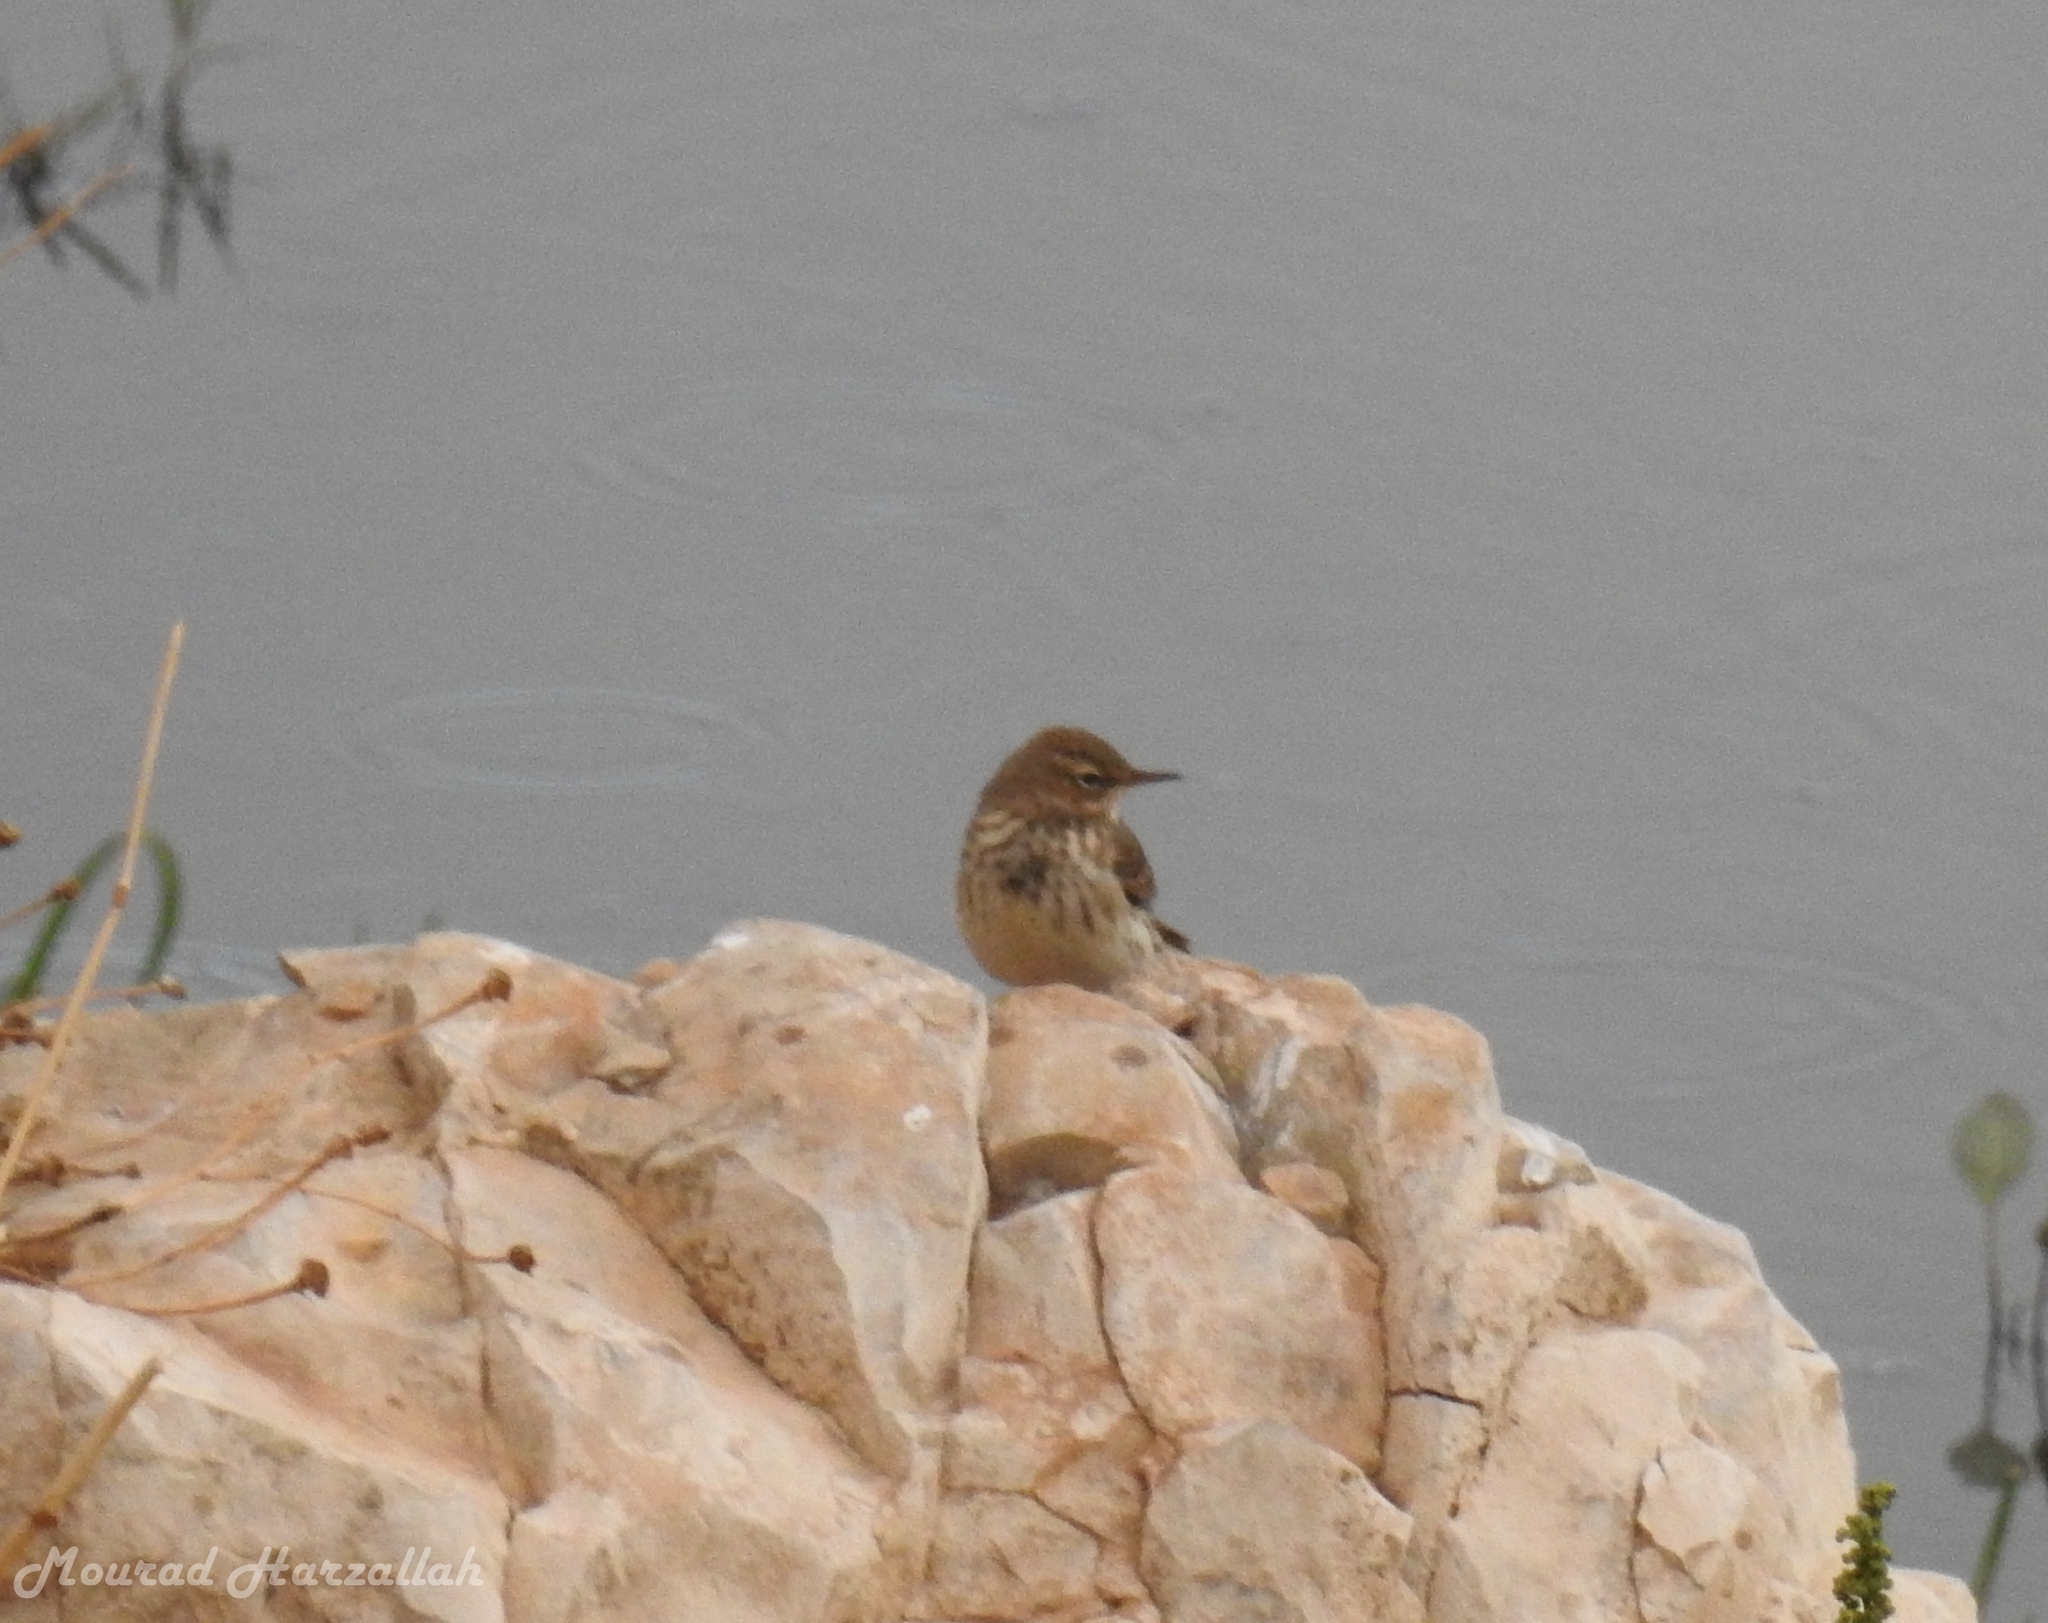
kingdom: Animalia
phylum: Chordata
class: Aves
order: Passeriformes
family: Motacillidae
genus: Anthus
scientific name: Anthus spinoletta
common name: Water pipit
